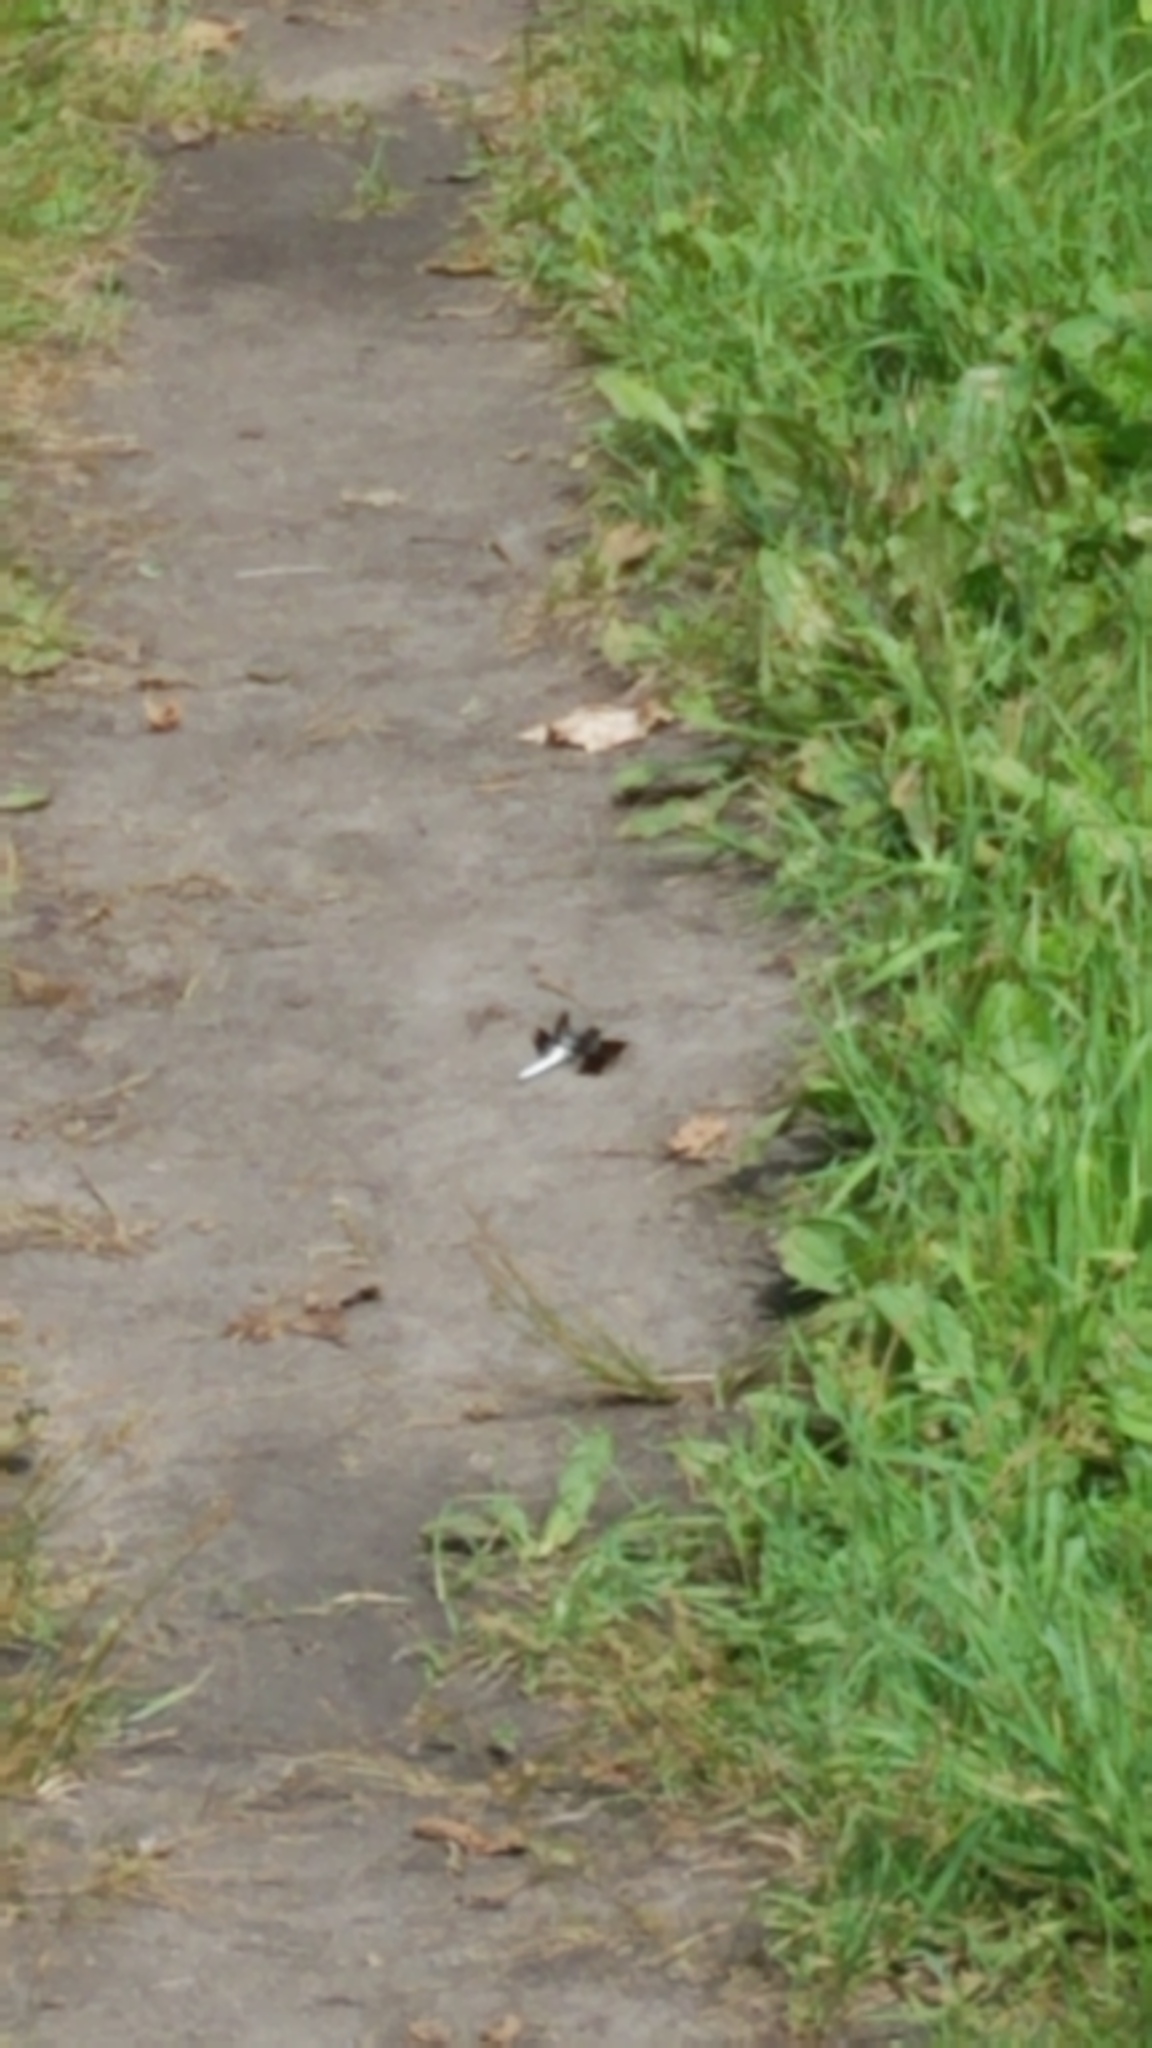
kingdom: Animalia
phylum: Arthropoda
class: Insecta
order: Odonata
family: Libellulidae
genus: Plathemis
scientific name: Plathemis lydia
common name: Common whitetail
